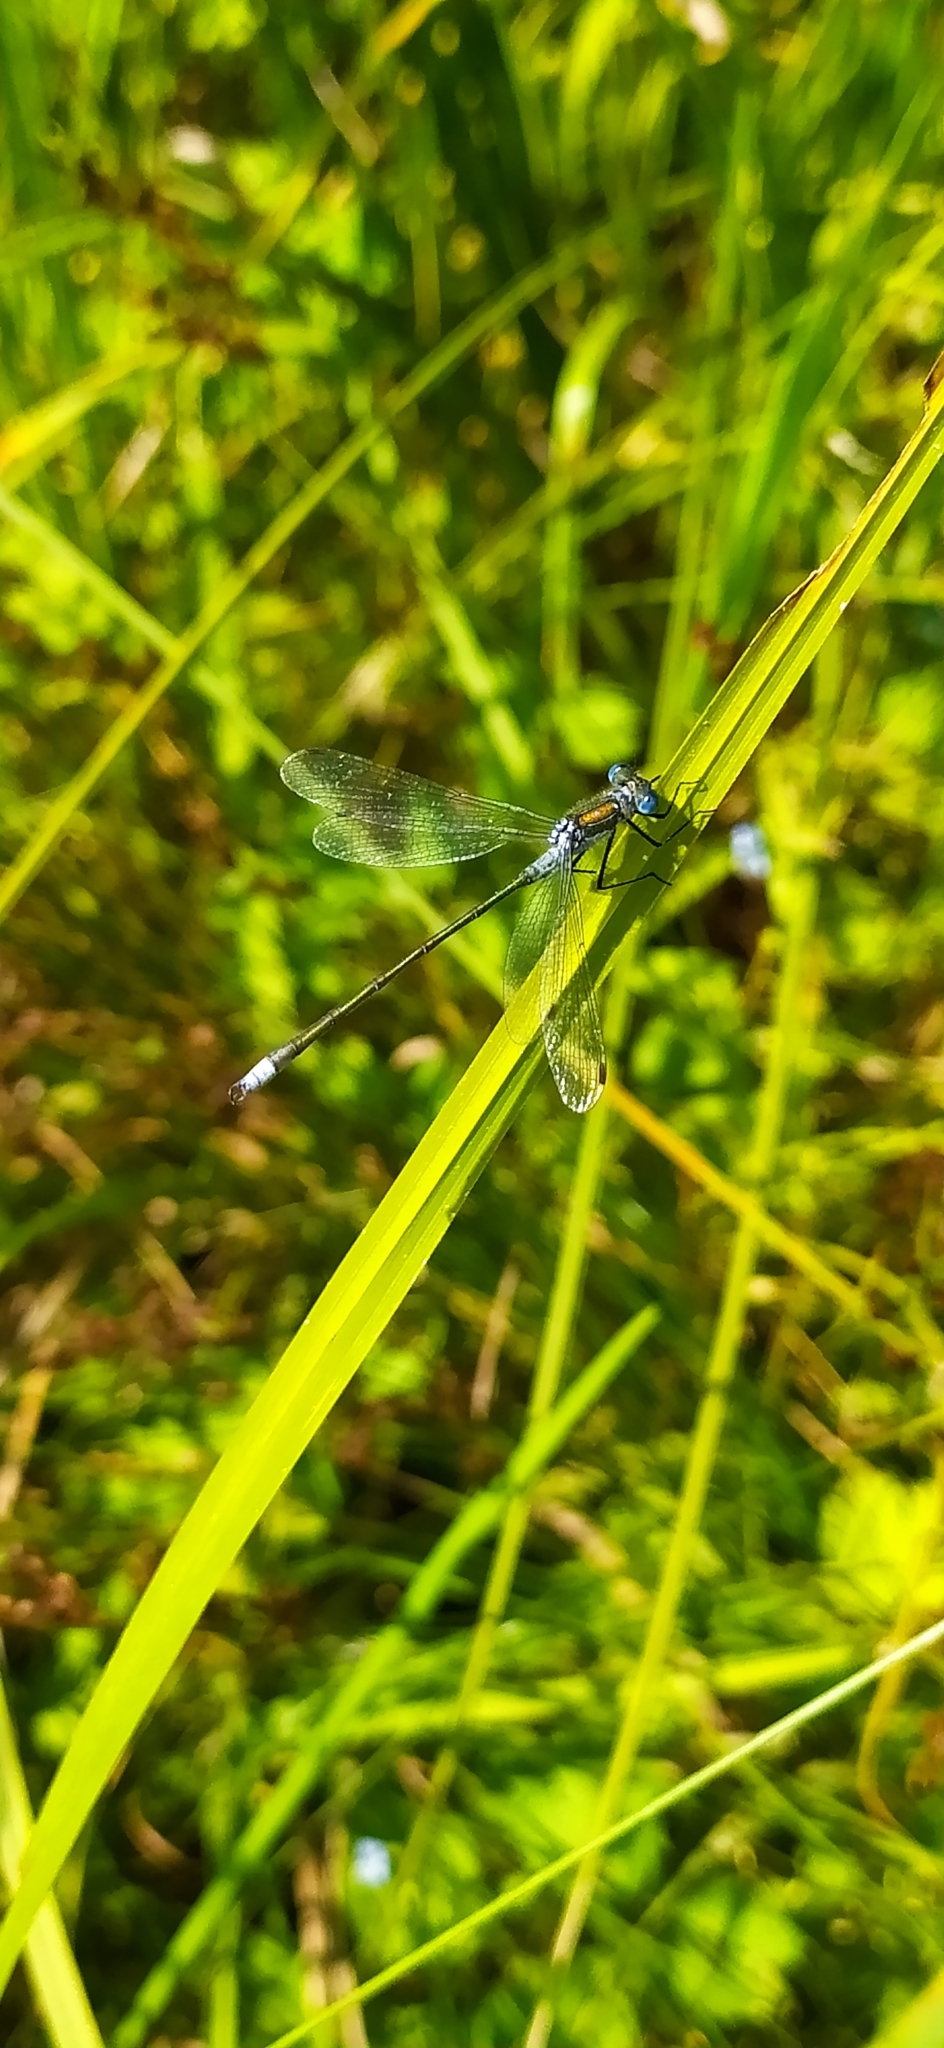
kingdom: Animalia
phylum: Arthropoda
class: Insecta
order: Odonata
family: Lestidae
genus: Lestes
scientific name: Lestes sponsa
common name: Common spreadwing
